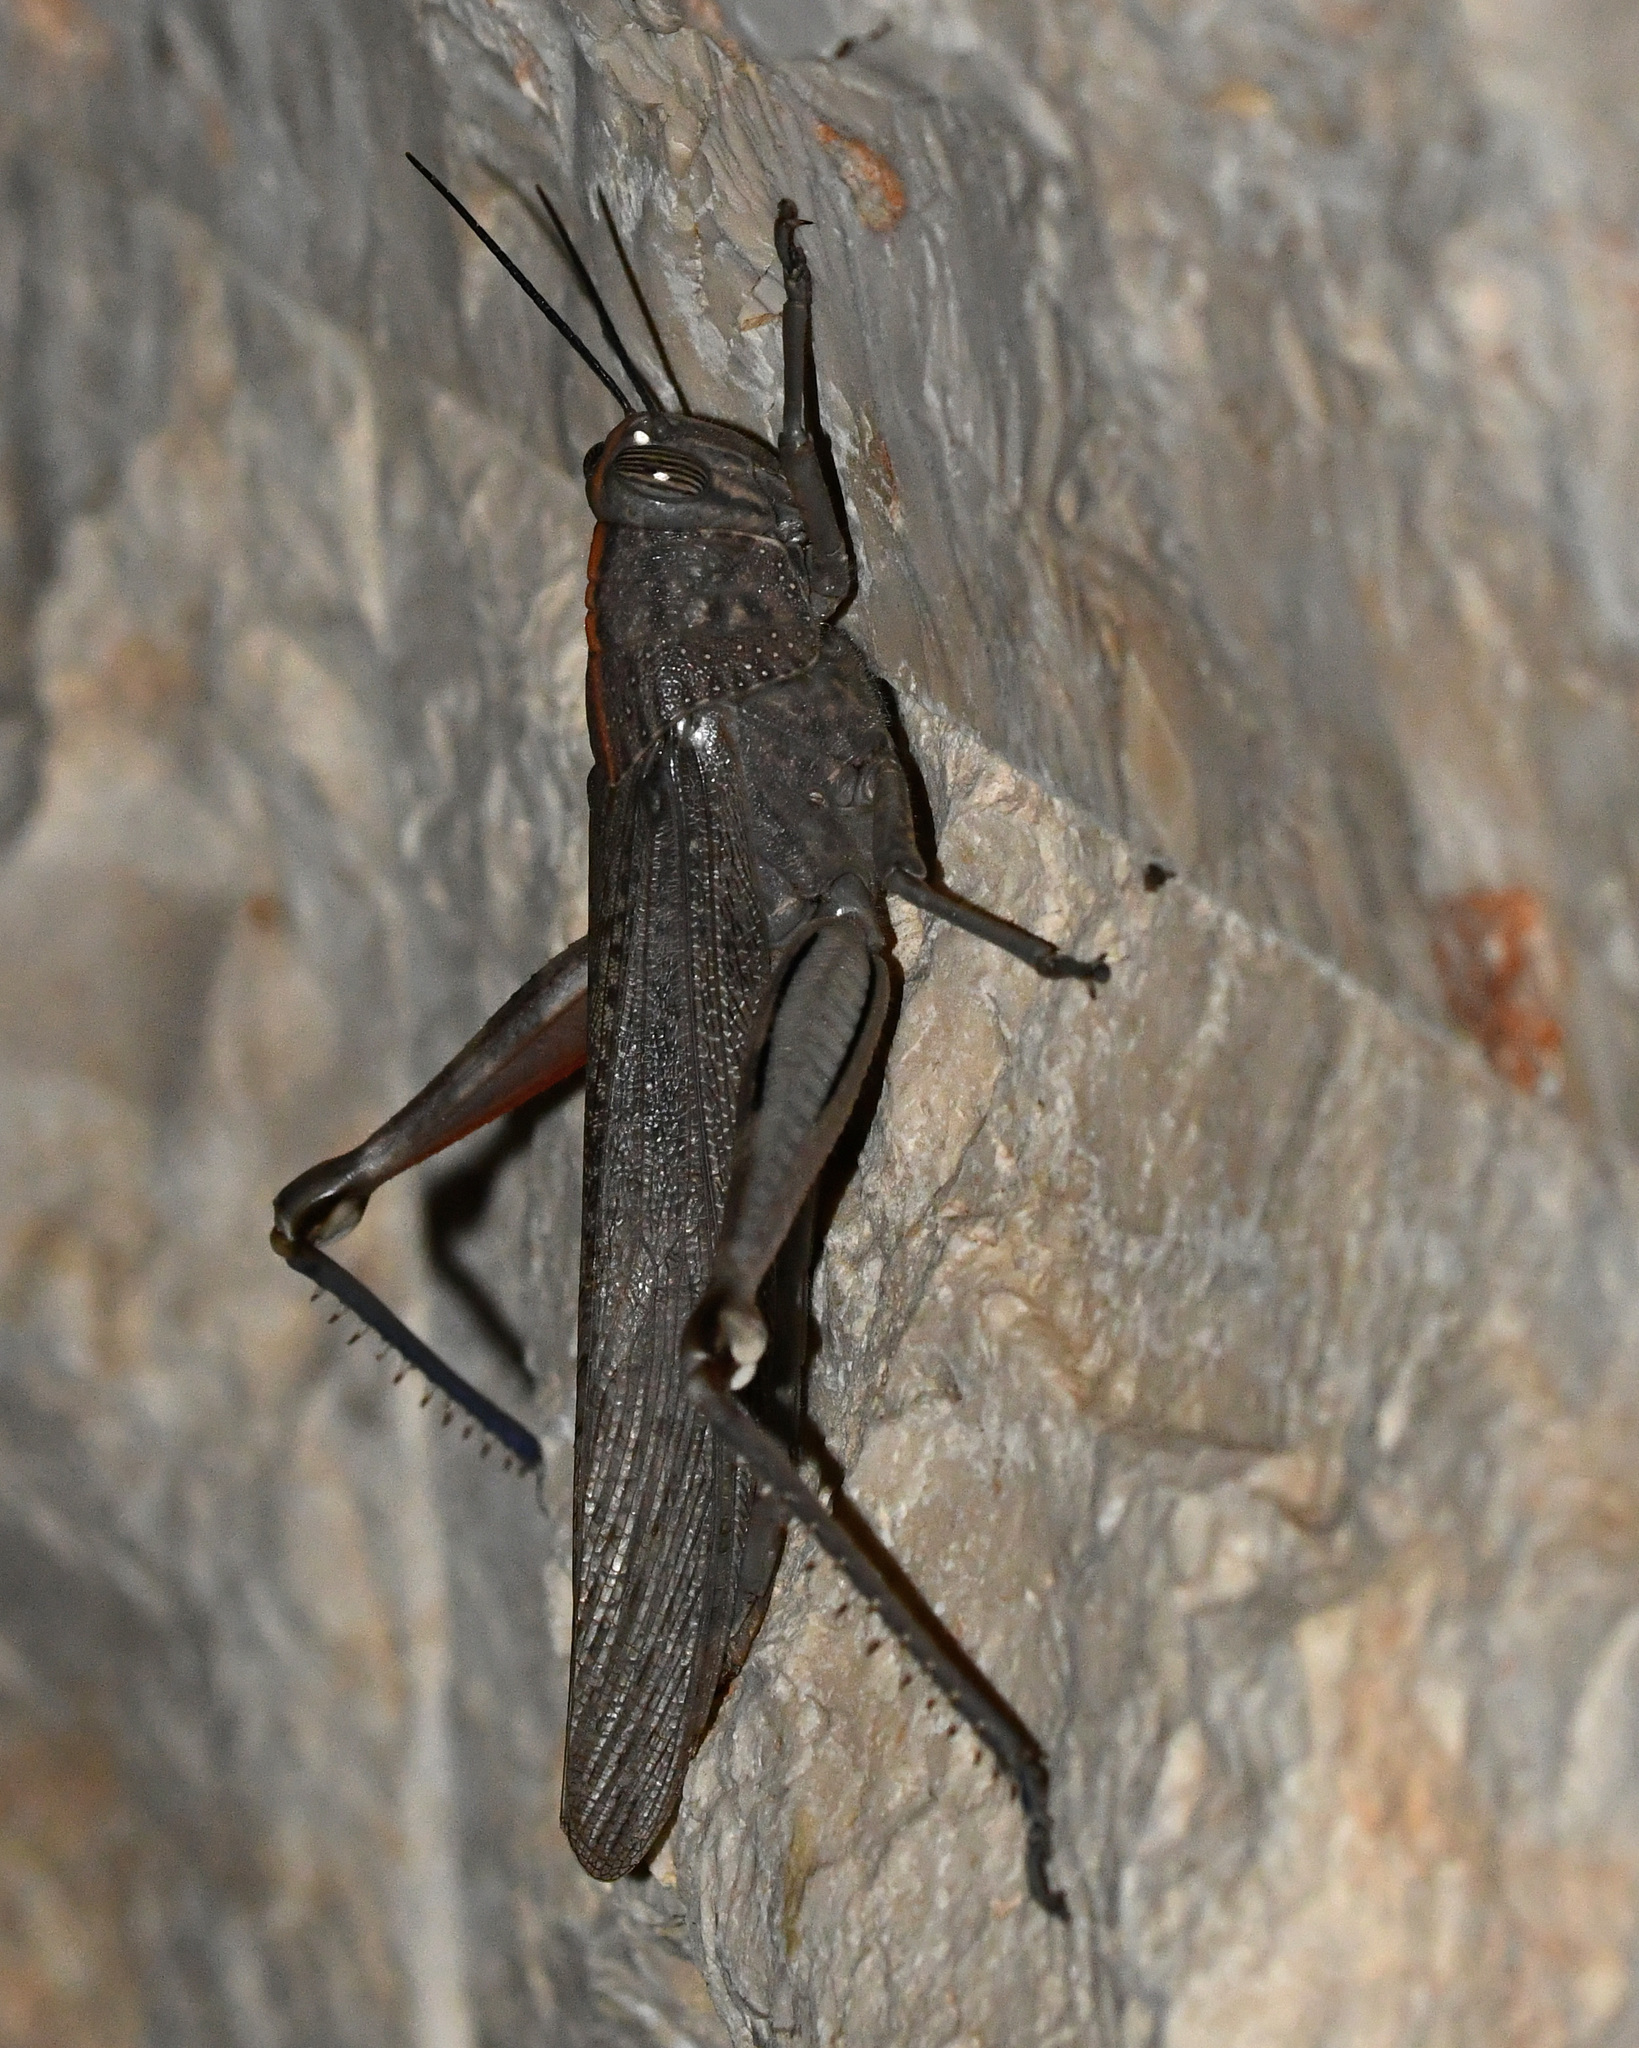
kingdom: Animalia
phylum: Arthropoda
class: Insecta
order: Orthoptera
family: Acrididae
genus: Anacridium
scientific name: Anacridium aegyptium
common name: Egyptian grasshopper
